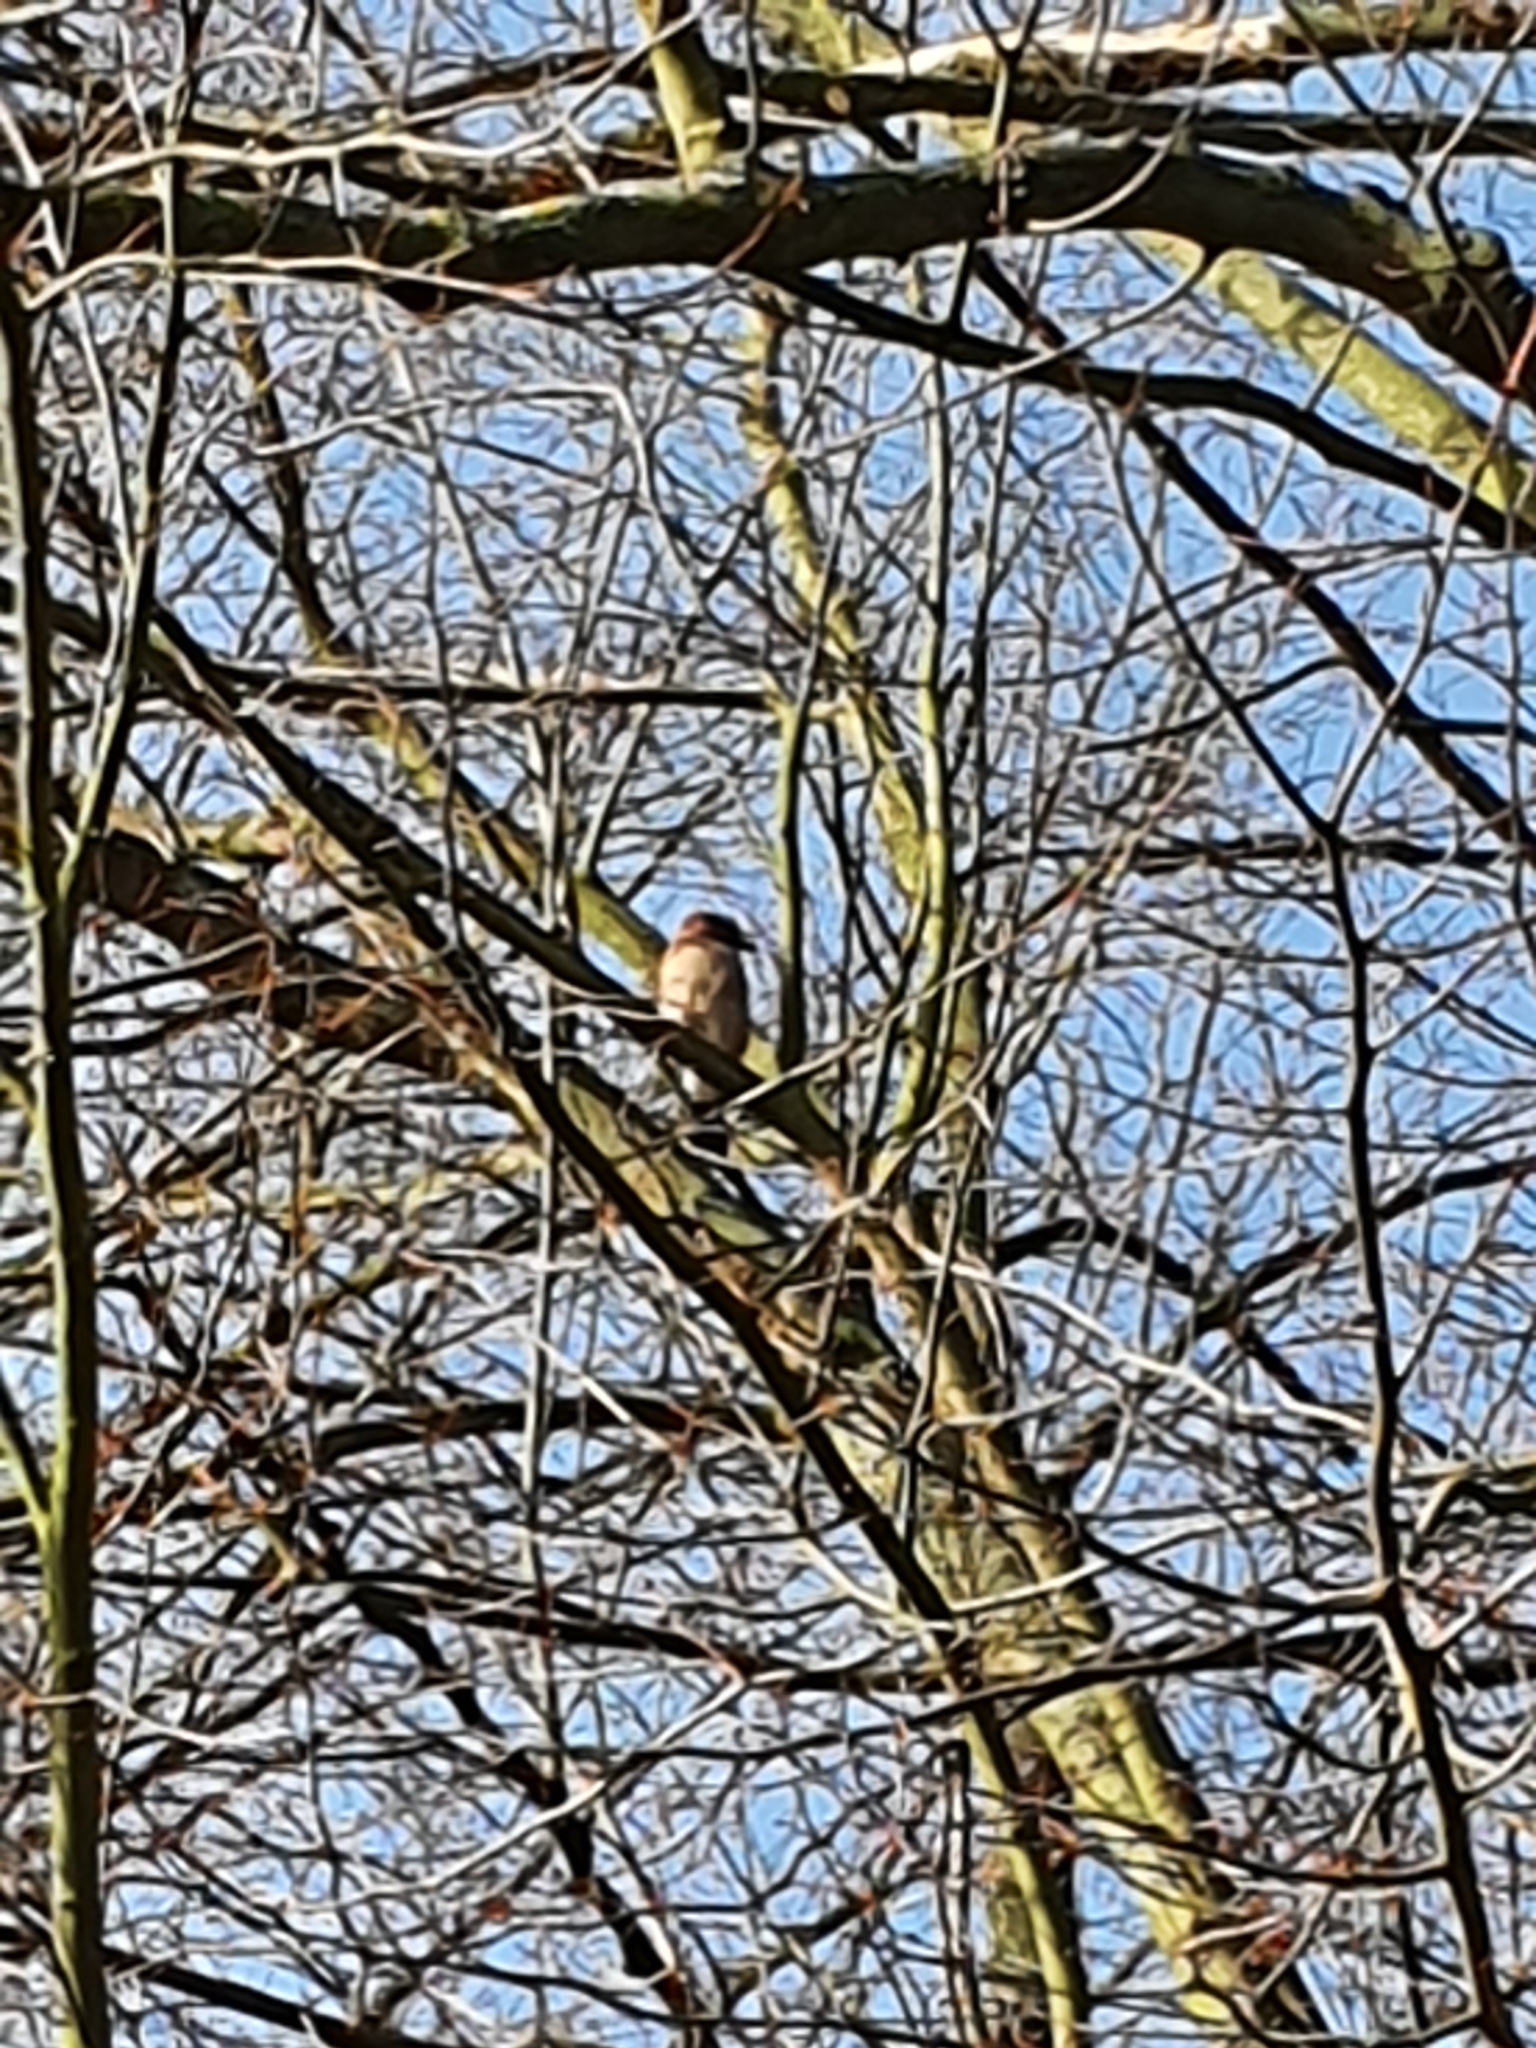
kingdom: Animalia
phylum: Chordata
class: Aves
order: Passeriformes
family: Corvidae
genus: Garrulus
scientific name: Garrulus glandarius
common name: Eurasian jay
